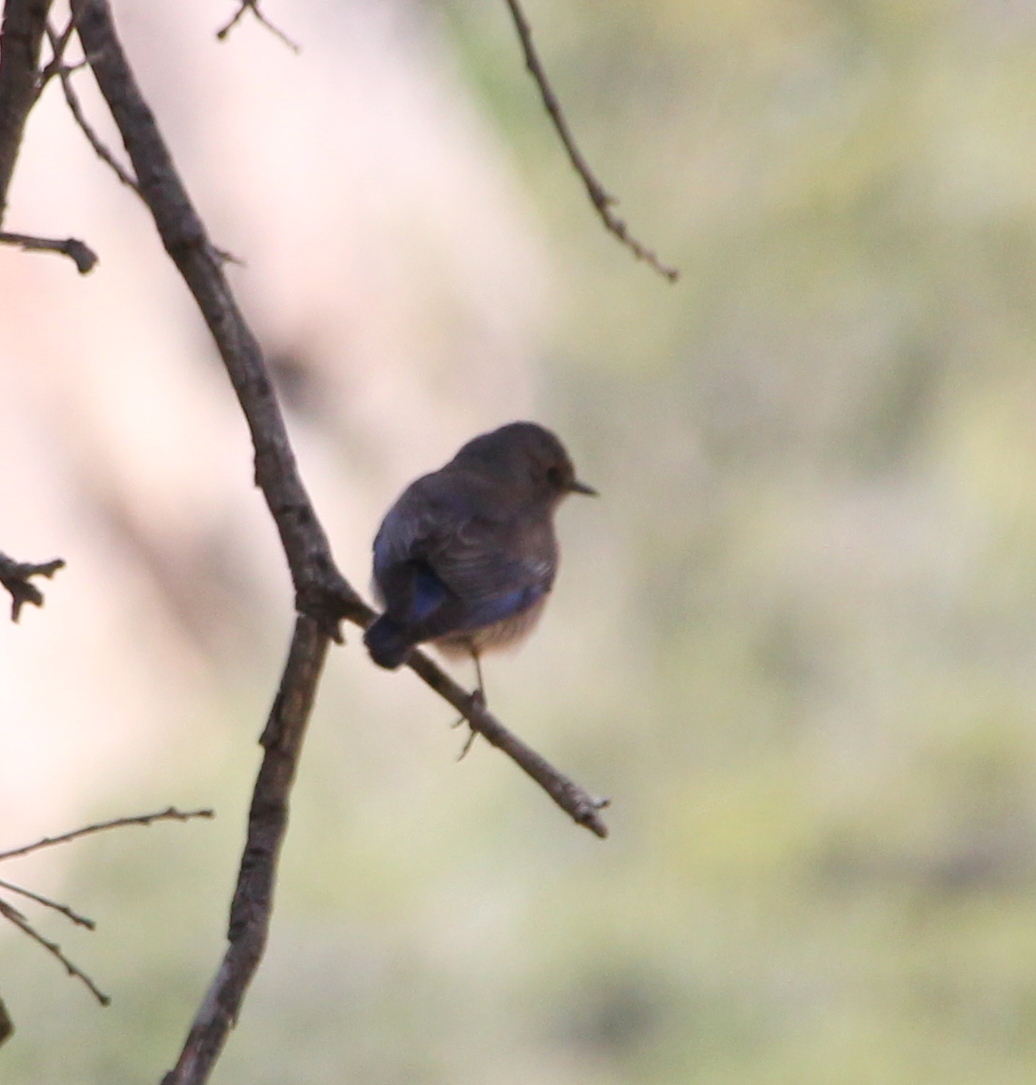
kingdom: Animalia
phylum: Chordata
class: Aves
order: Passeriformes
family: Turdidae
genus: Sialia
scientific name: Sialia mexicana
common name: Western bluebird
